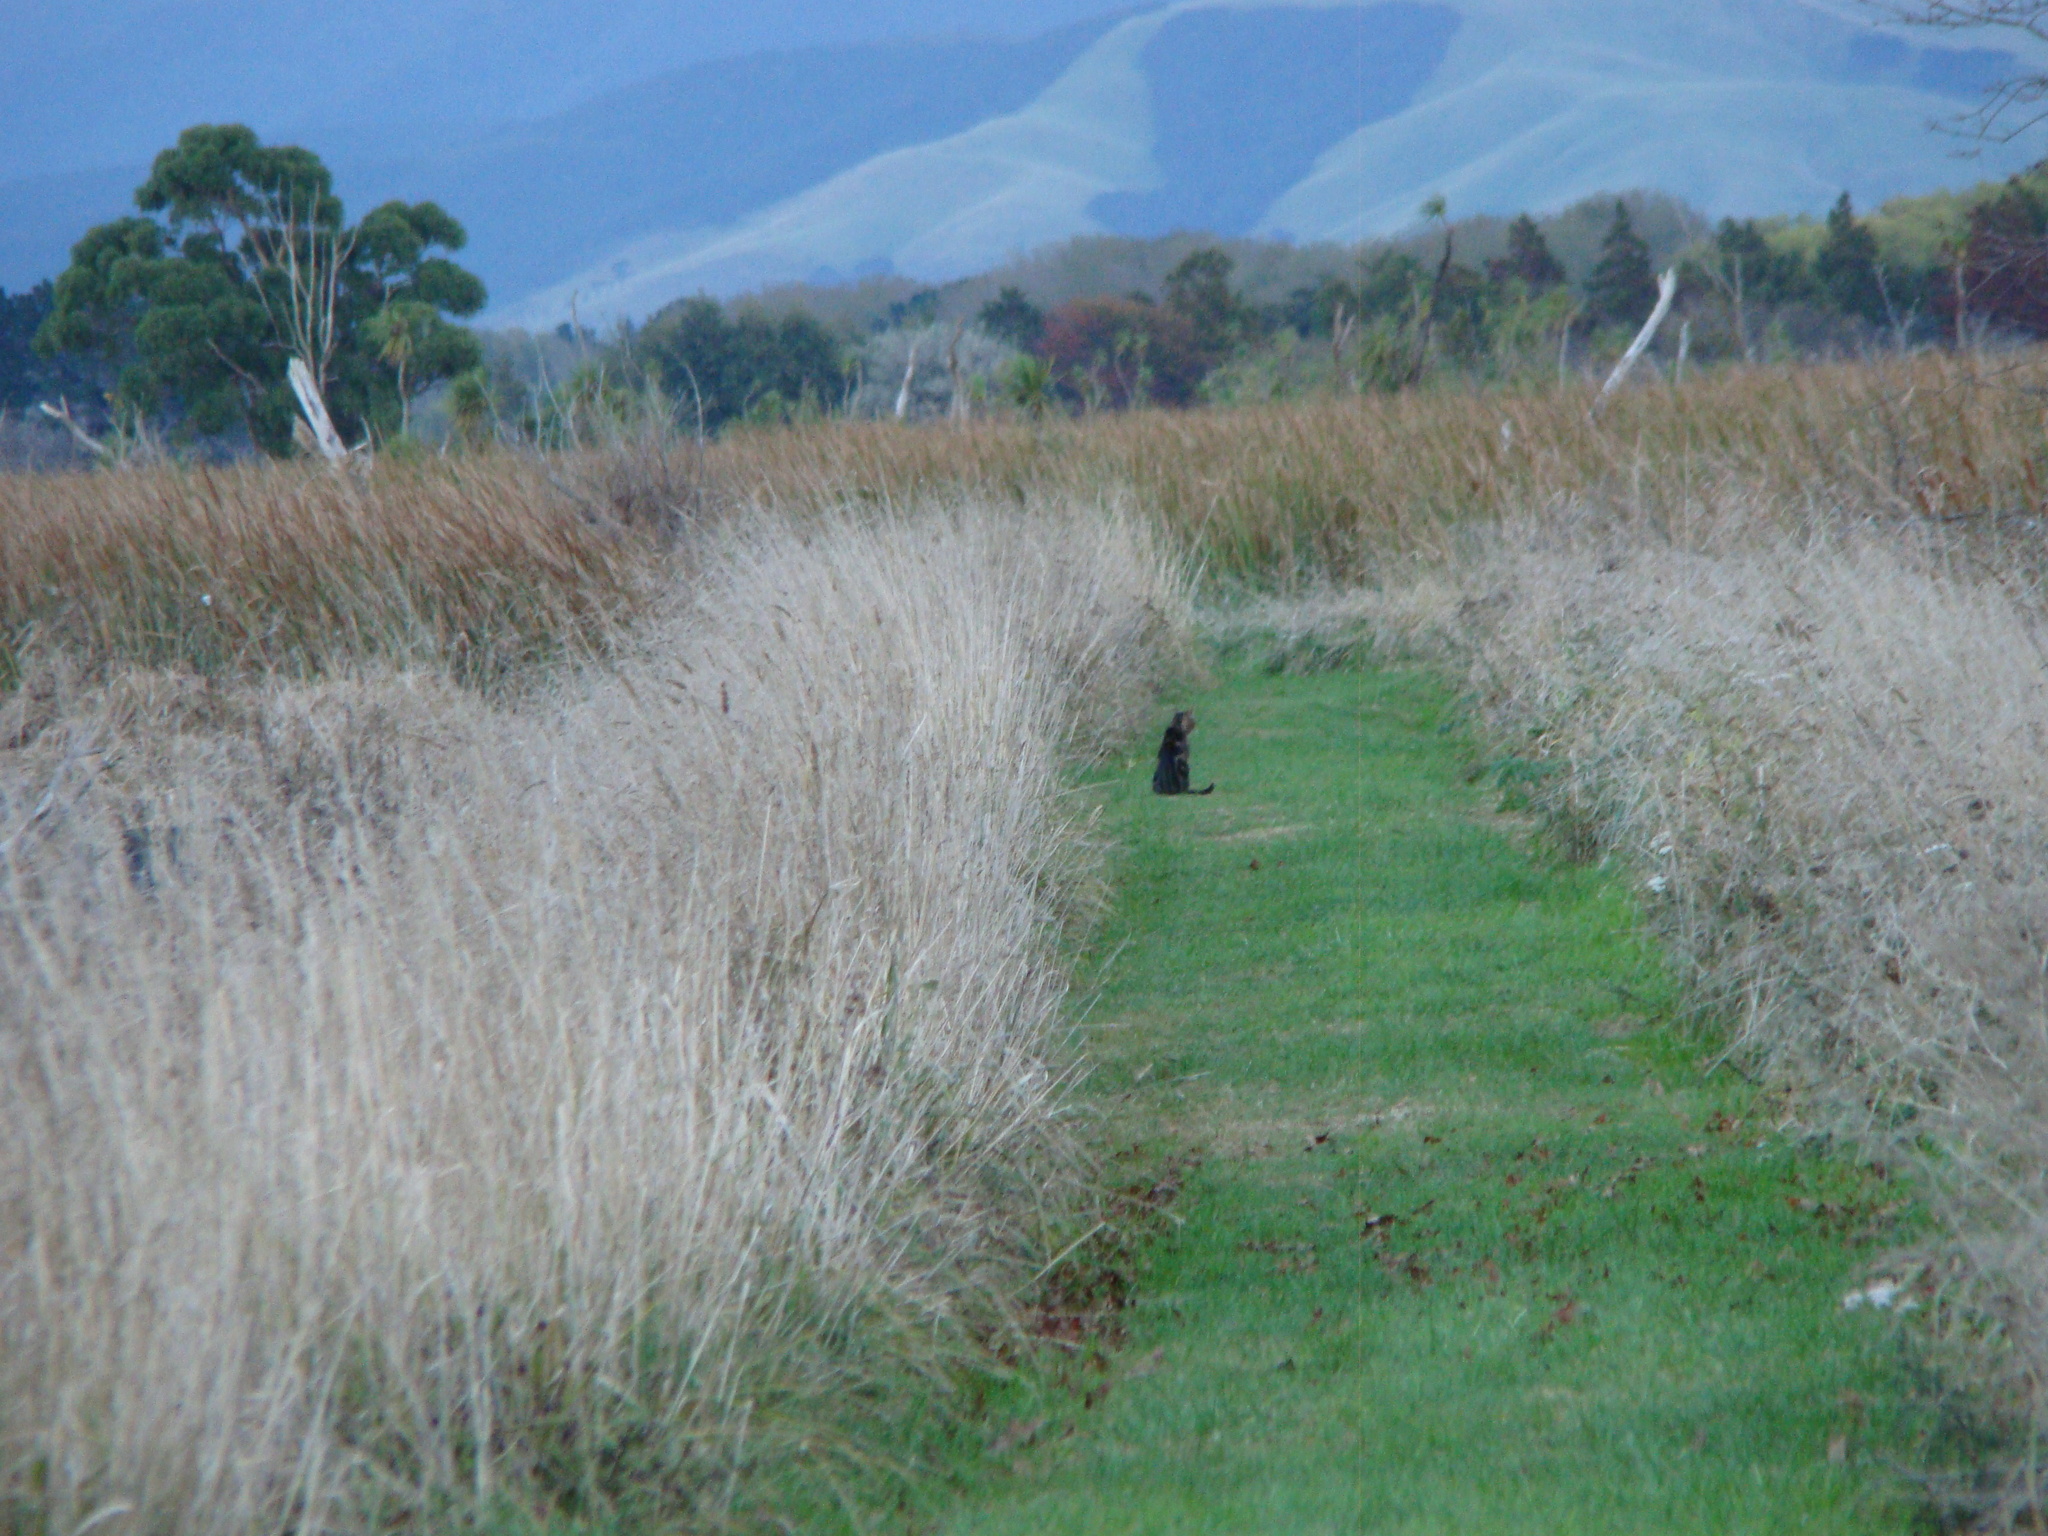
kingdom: Animalia
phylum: Chordata
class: Mammalia
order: Carnivora
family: Felidae
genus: Felis
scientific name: Felis catus
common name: Domestic cat
